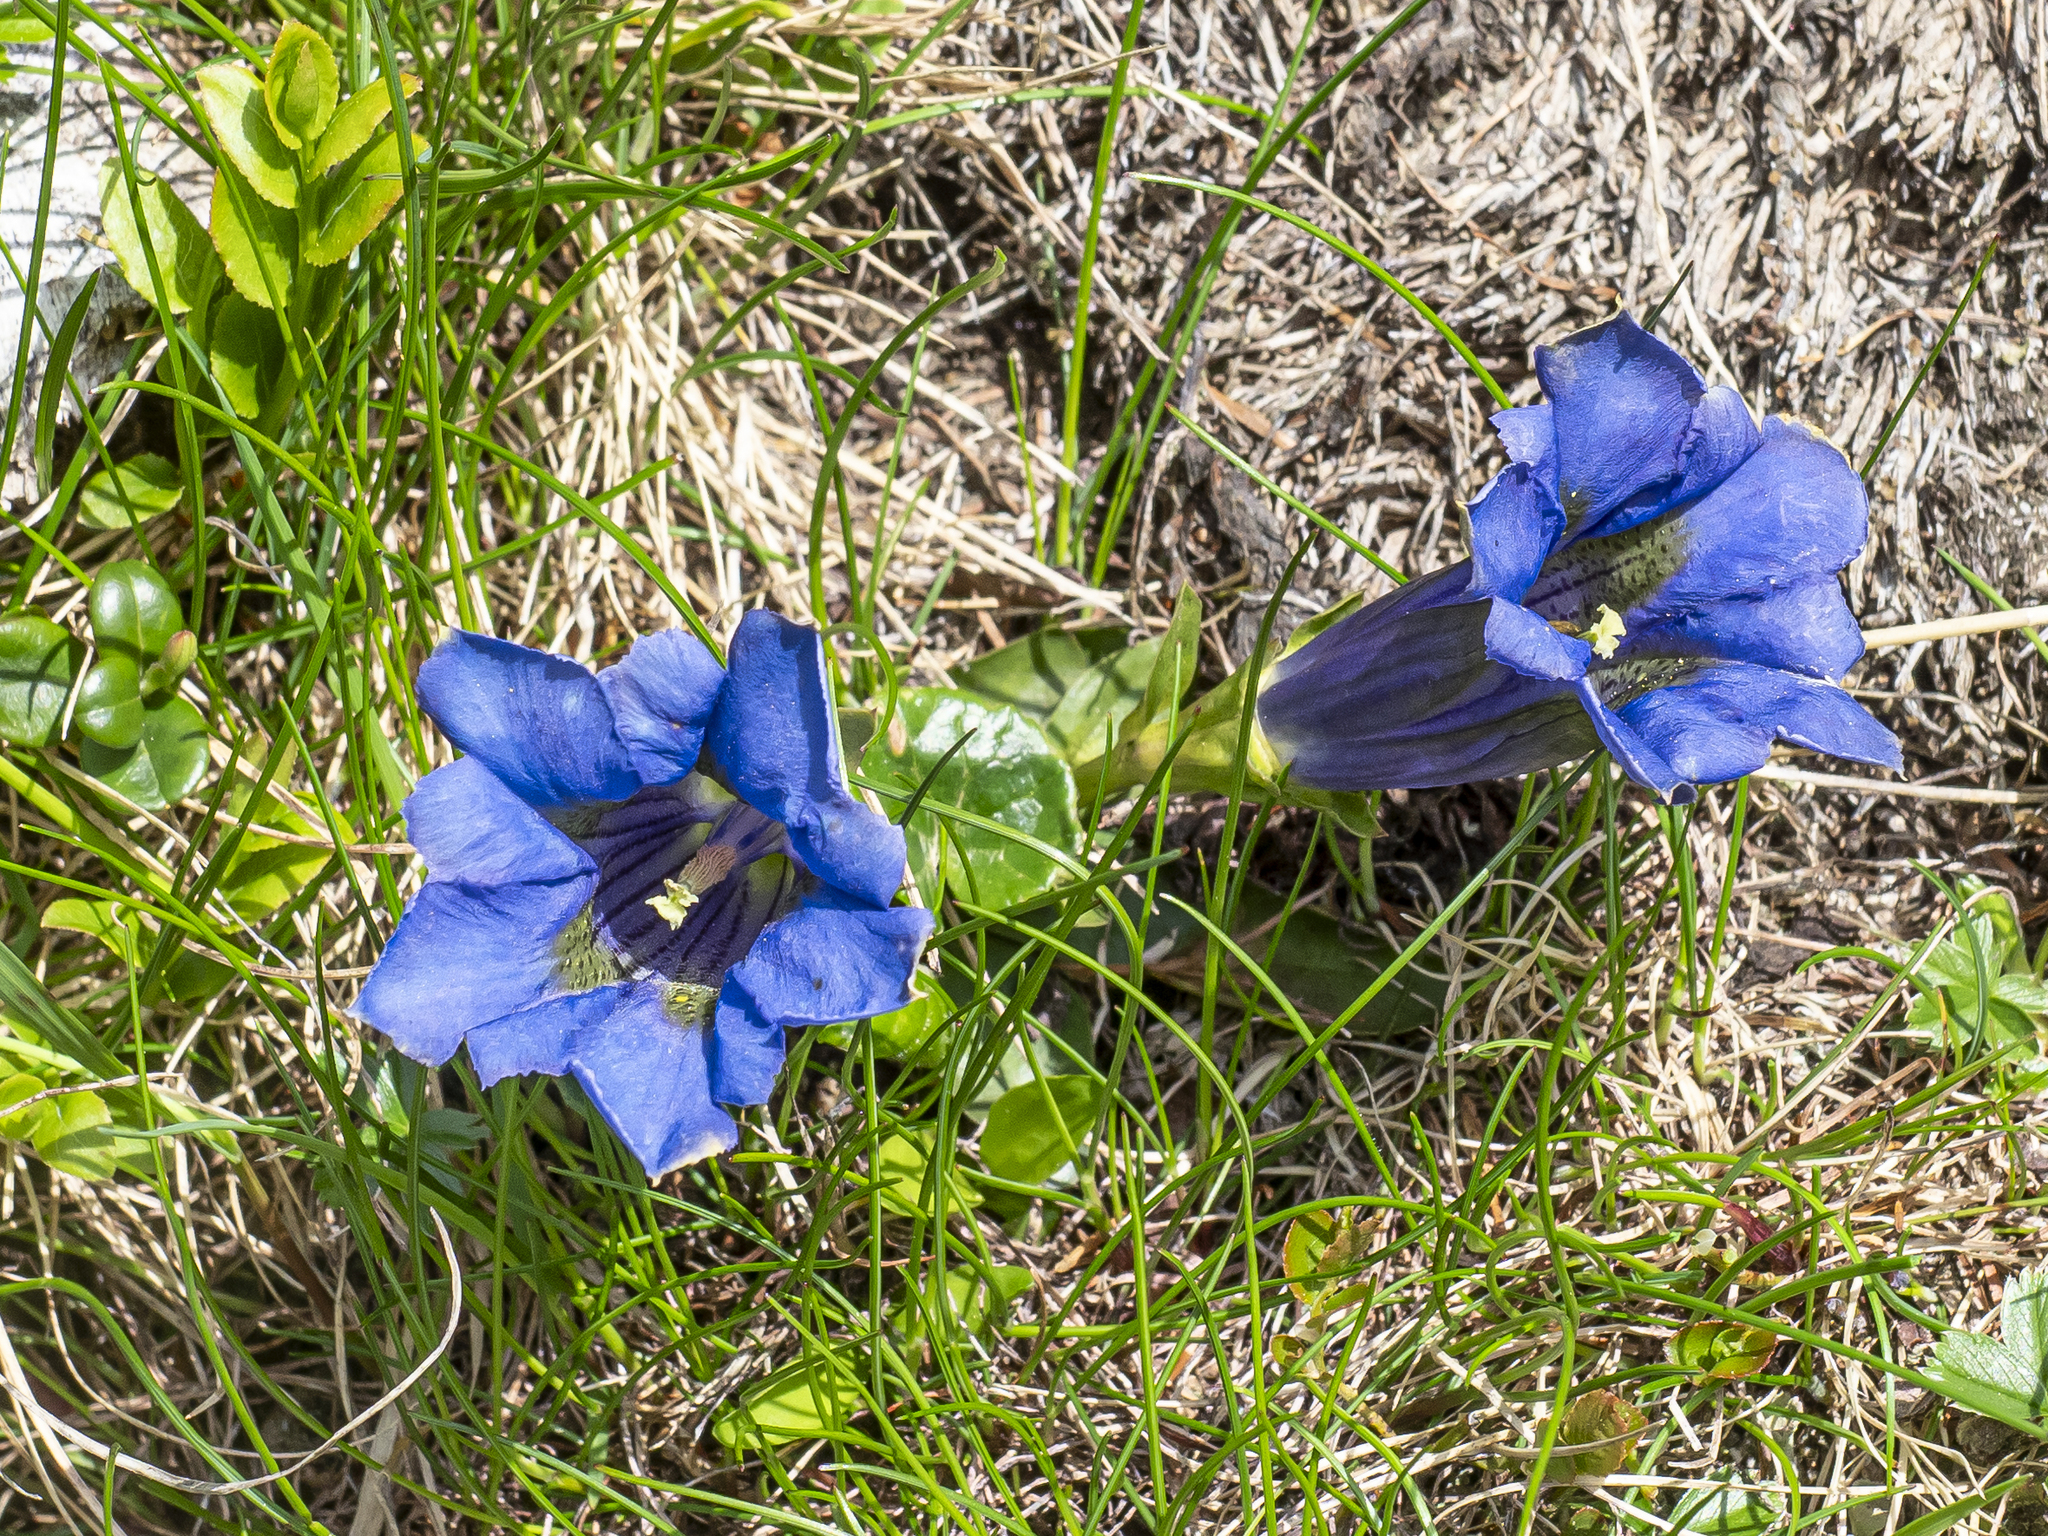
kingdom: Plantae
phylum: Tracheophyta
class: Magnoliopsida
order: Gentianales
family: Gentianaceae
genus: Gentiana
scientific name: Gentiana acaulis
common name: Trumpet gentian
